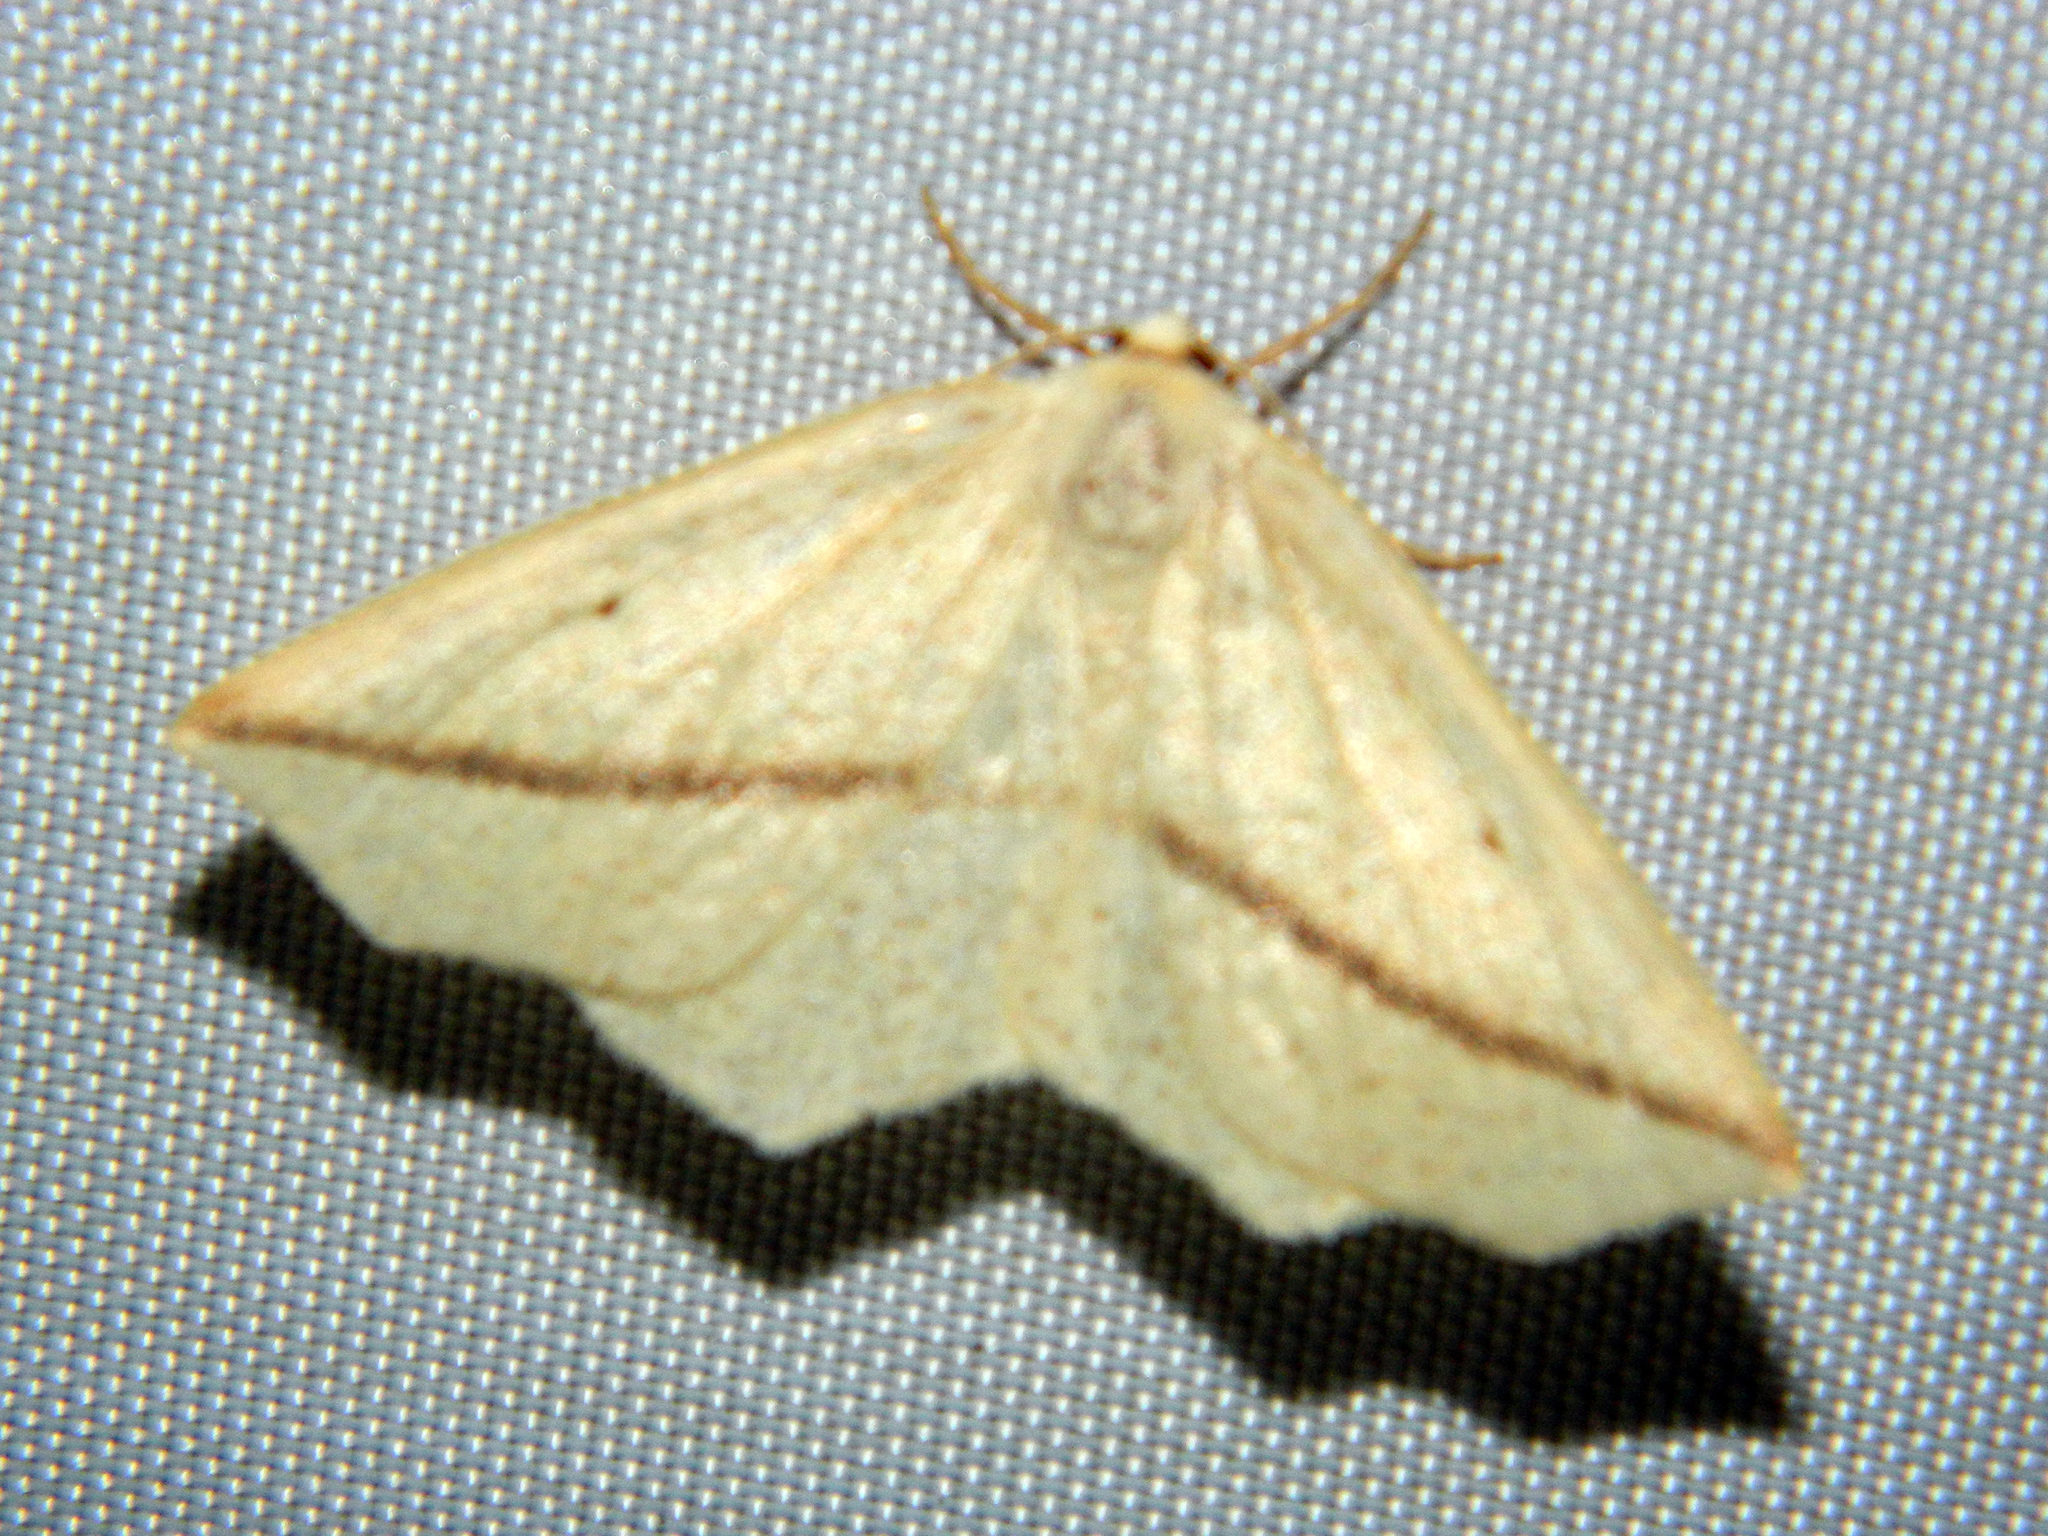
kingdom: Animalia
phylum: Arthropoda
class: Insecta
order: Lepidoptera
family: Geometridae
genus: Tetracis
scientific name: Tetracis crocallata
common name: Yellow slant-line
